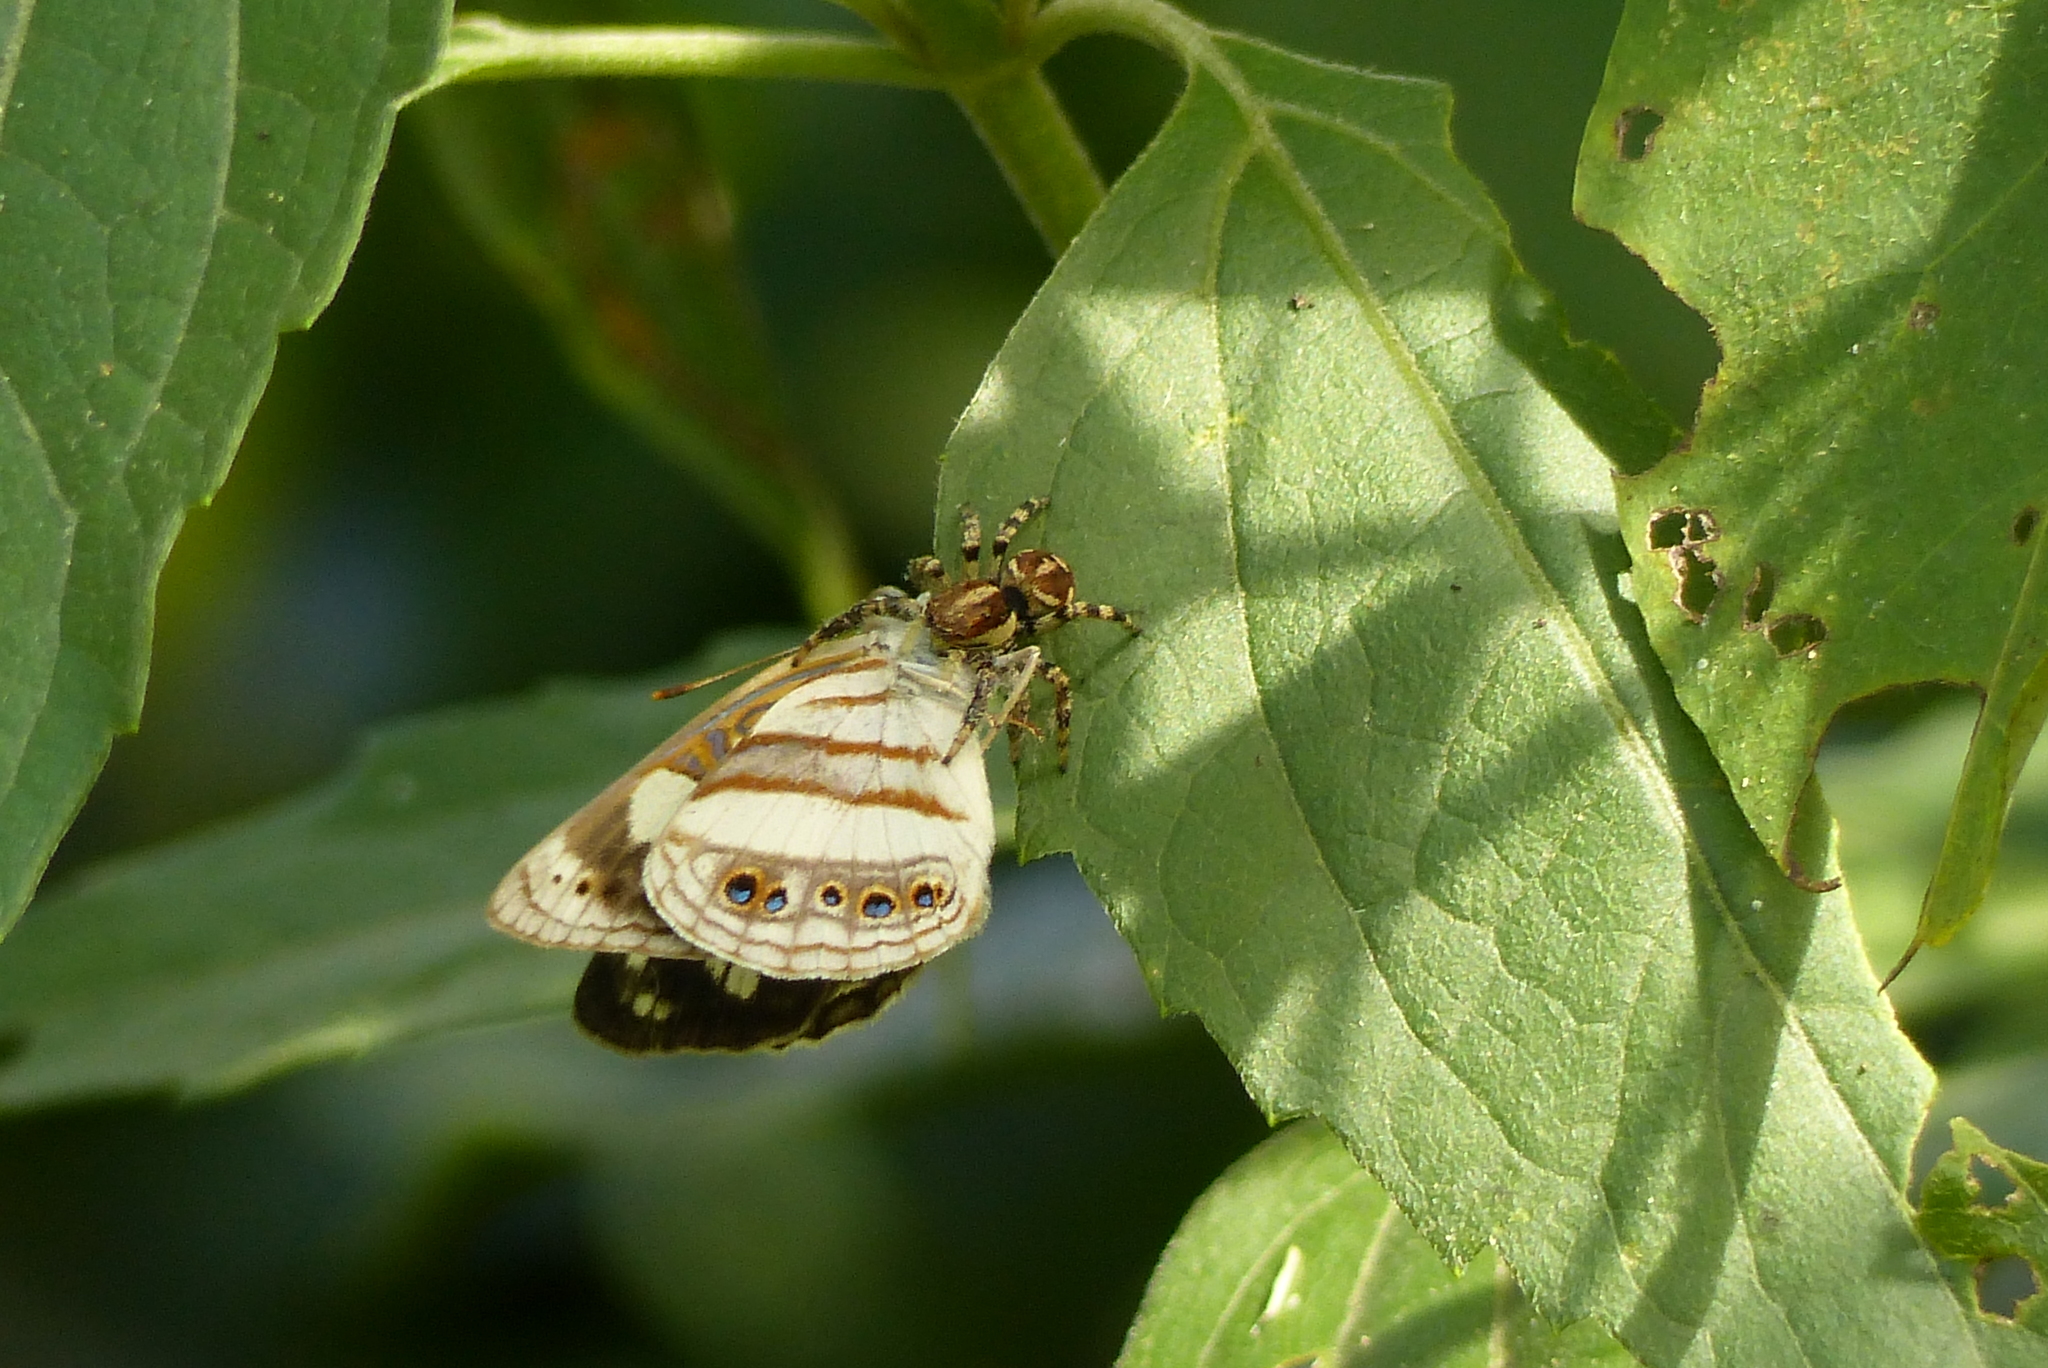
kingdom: Animalia
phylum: Arthropoda
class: Insecta
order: Lepidoptera
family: Nymphalidae
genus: Dynamine
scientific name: Dynamine arene
